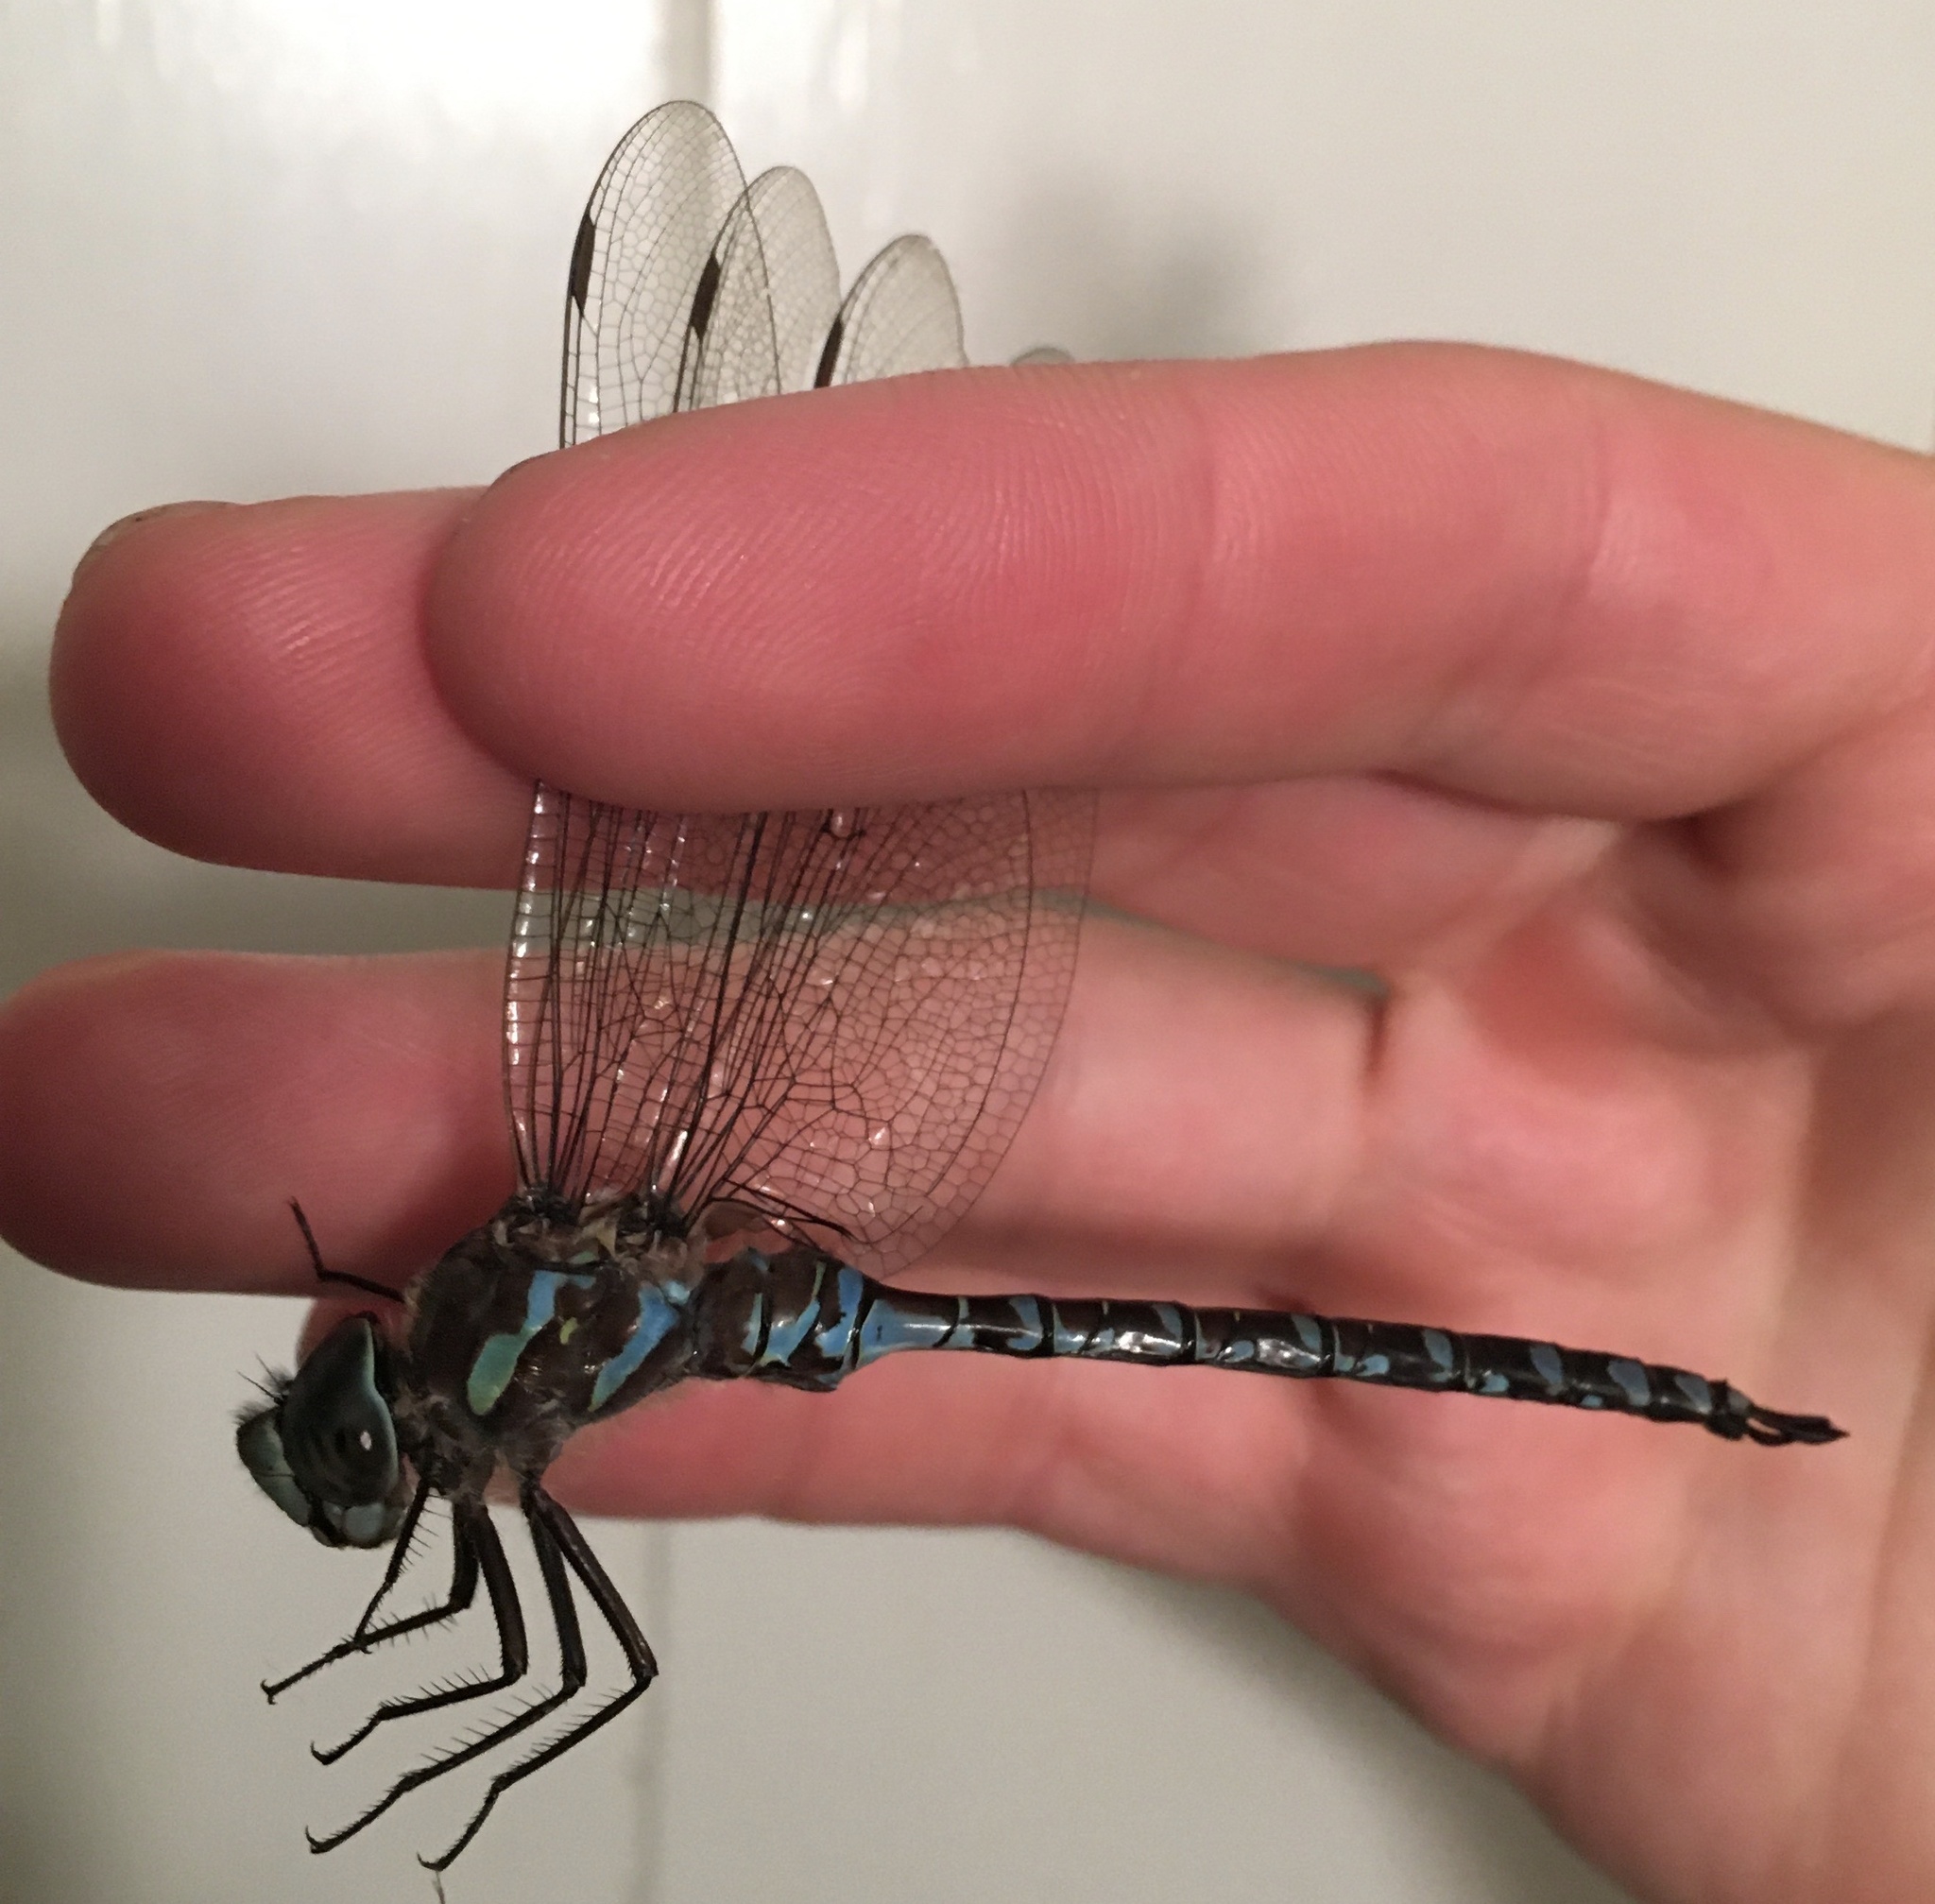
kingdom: Animalia
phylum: Arthropoda
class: Insecta
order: Odonata
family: Aeshnidae
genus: Aeshna
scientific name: Aeshna canadensis
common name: Canada darner
